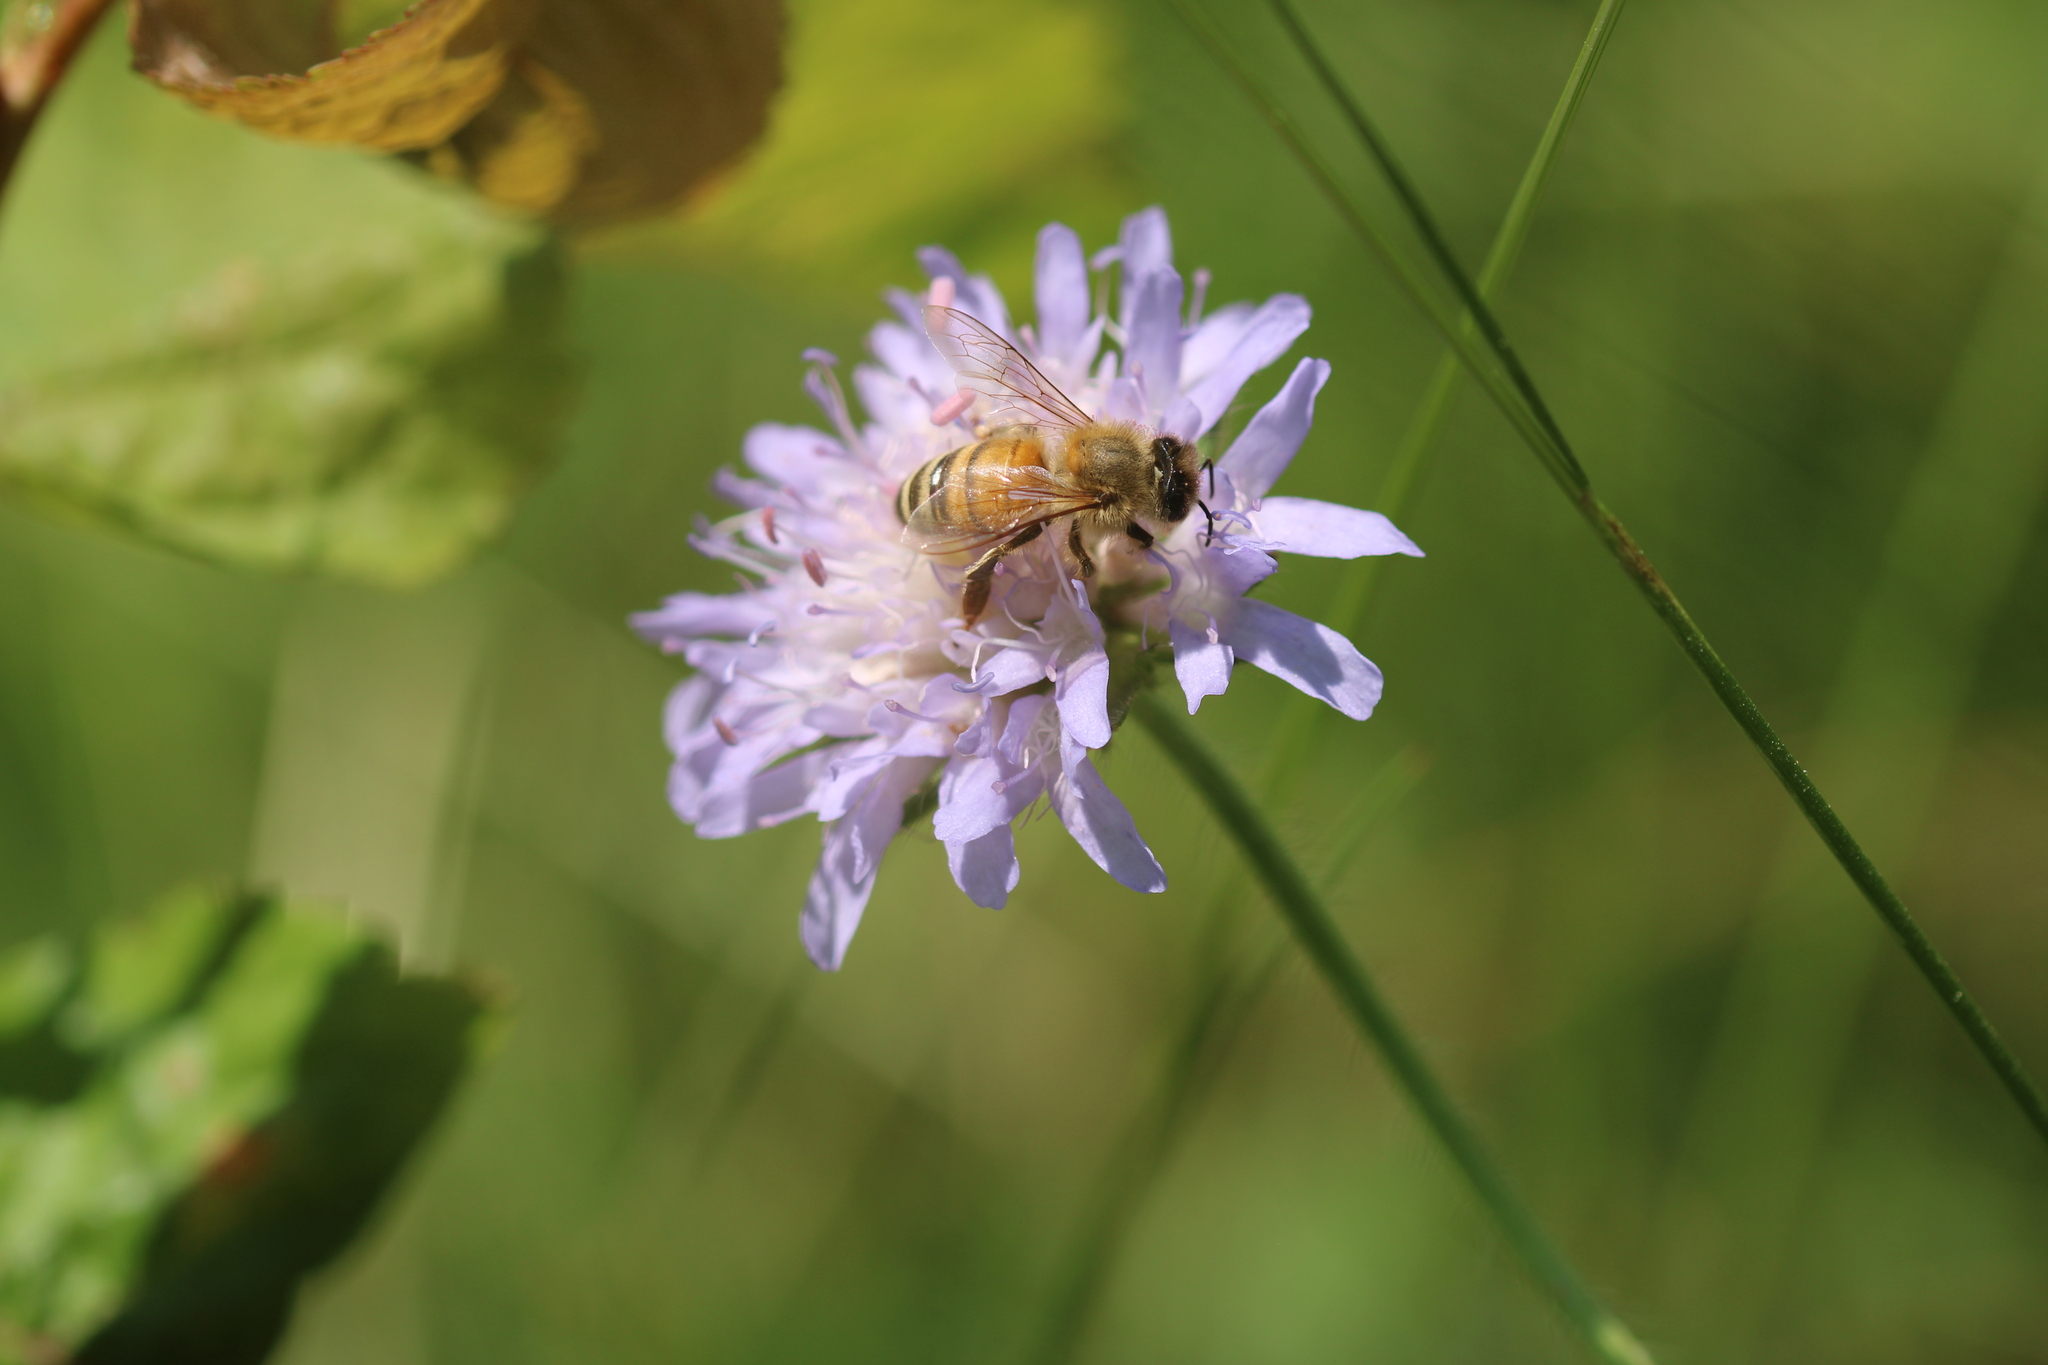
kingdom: Animalia
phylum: Arthropoda
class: Insecta
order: Hymenoptera
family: Apidae
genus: Apis
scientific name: Apis mellifera
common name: Honey bee
